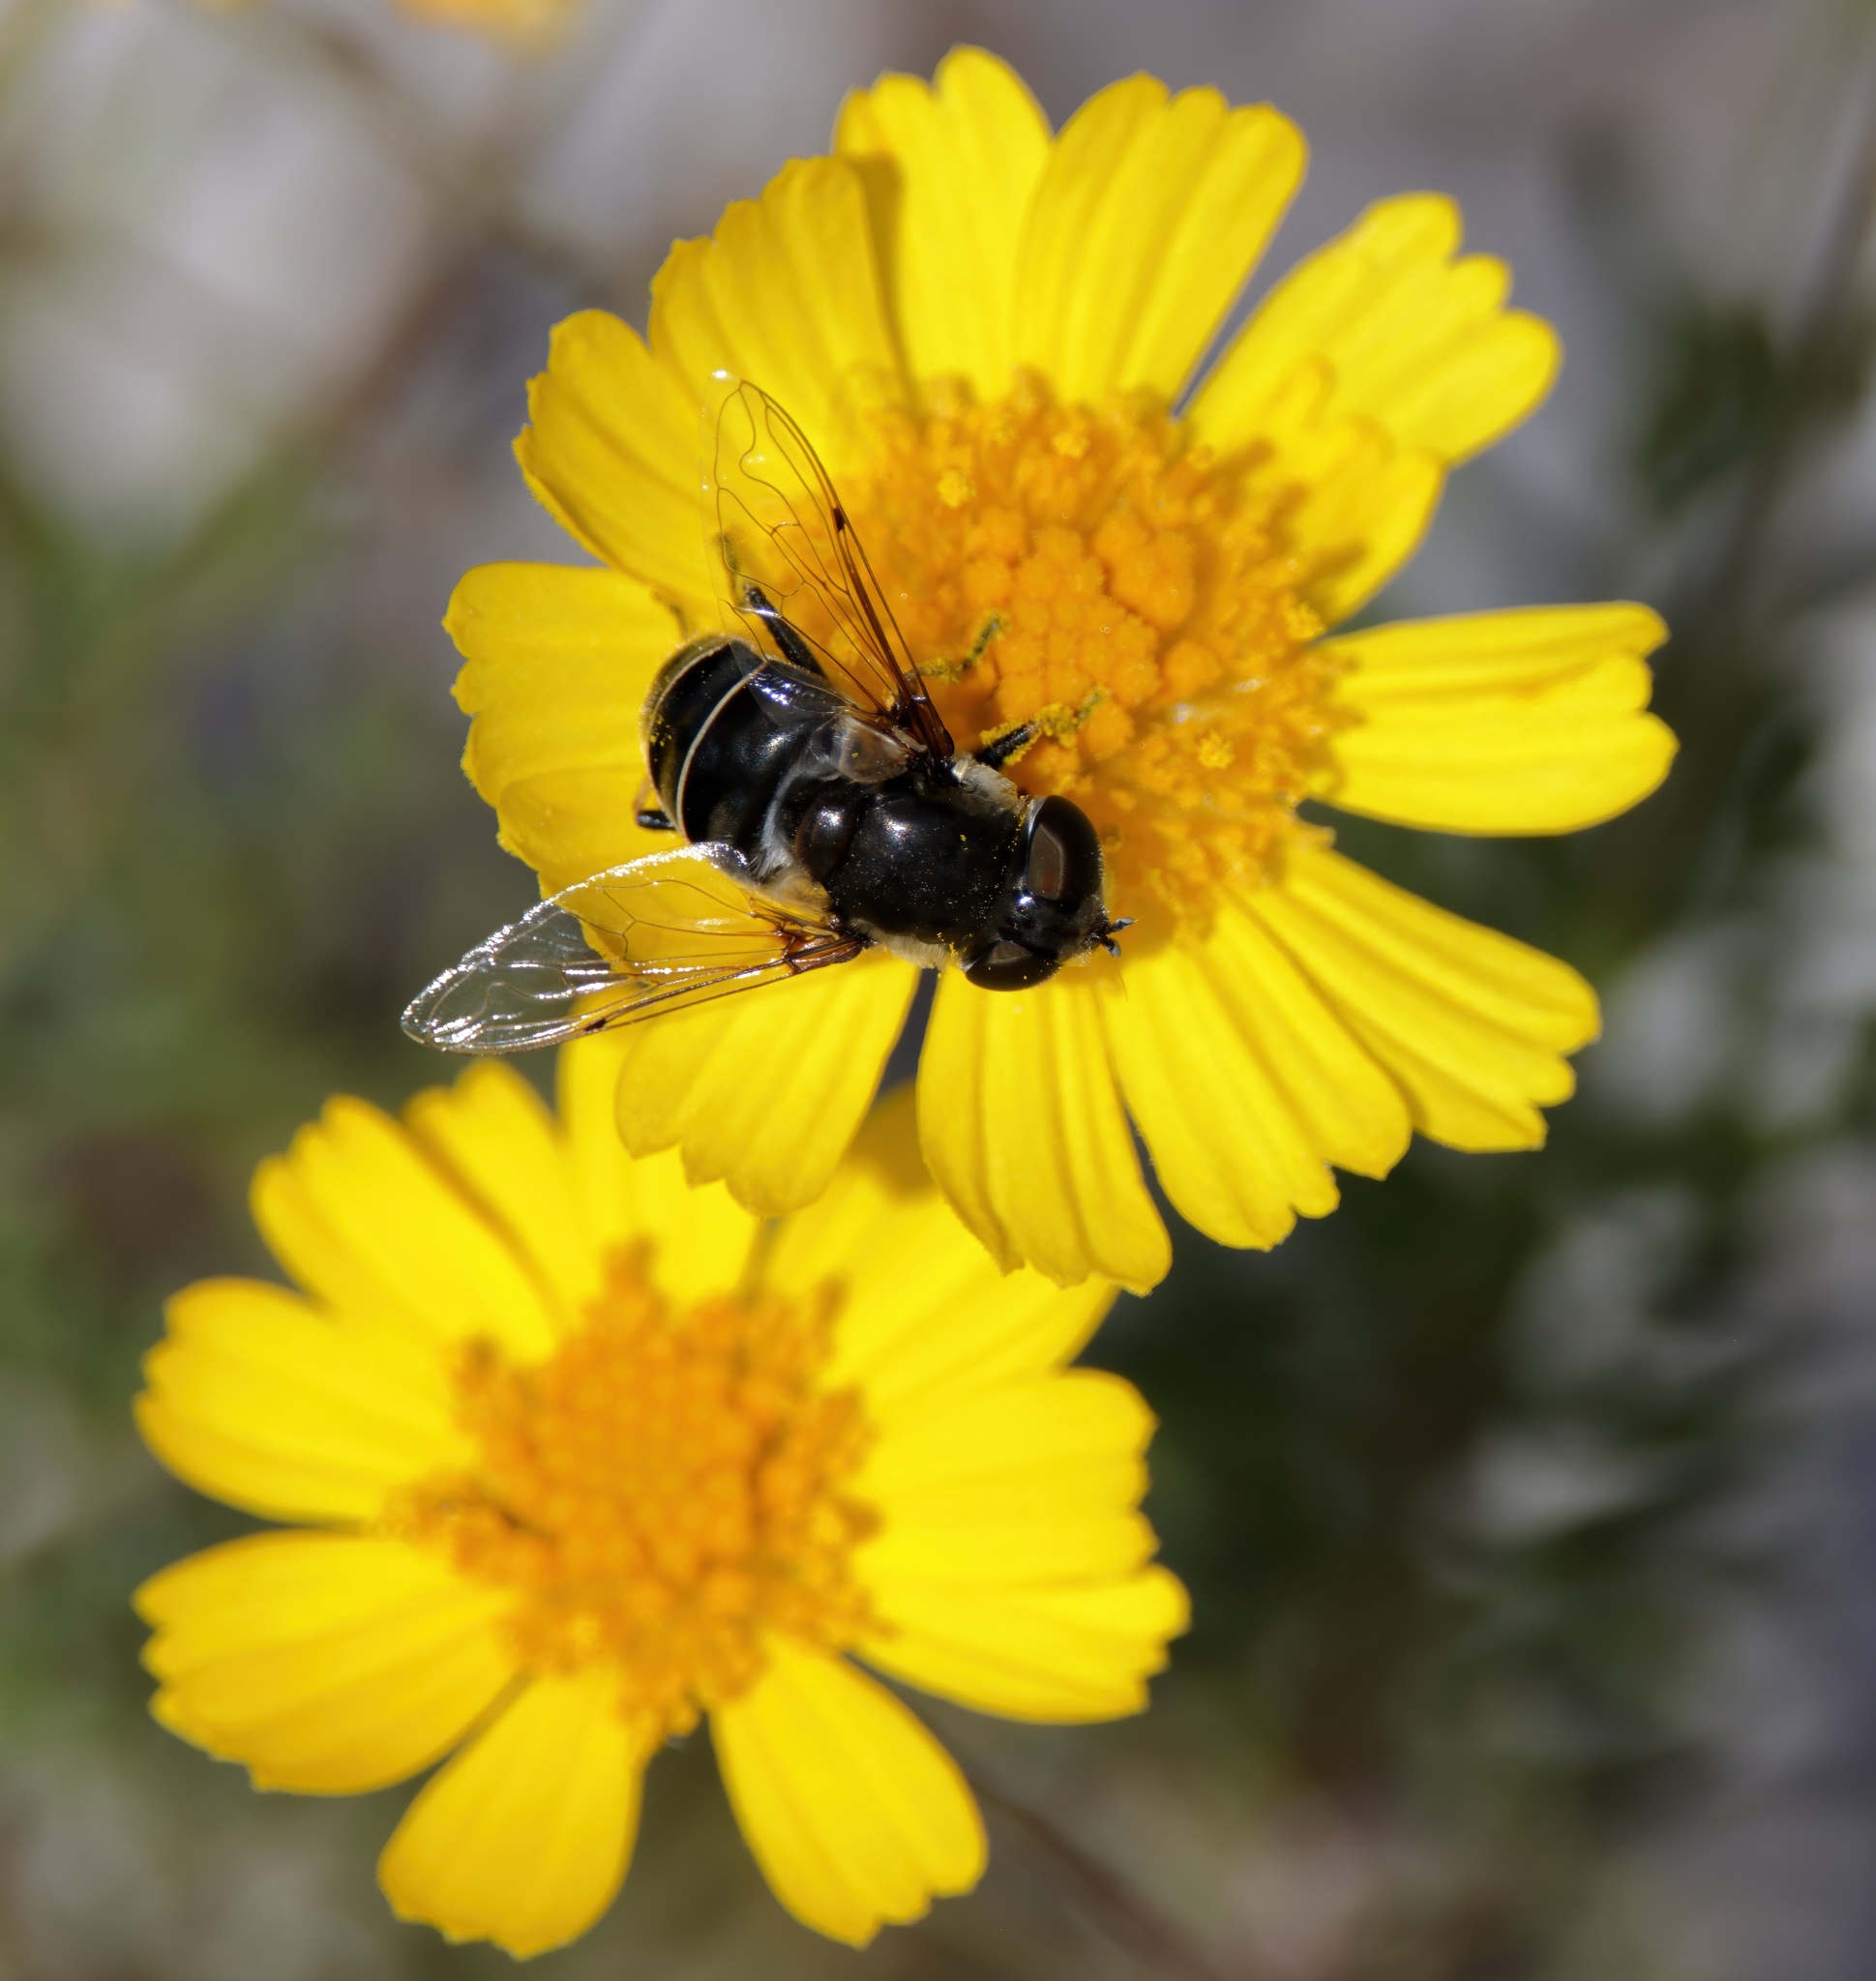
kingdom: Animalia
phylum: Arthropoda
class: Insecta
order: Diptera
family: Syrphidae
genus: Eristalis
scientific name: Eristalis dimidiata
